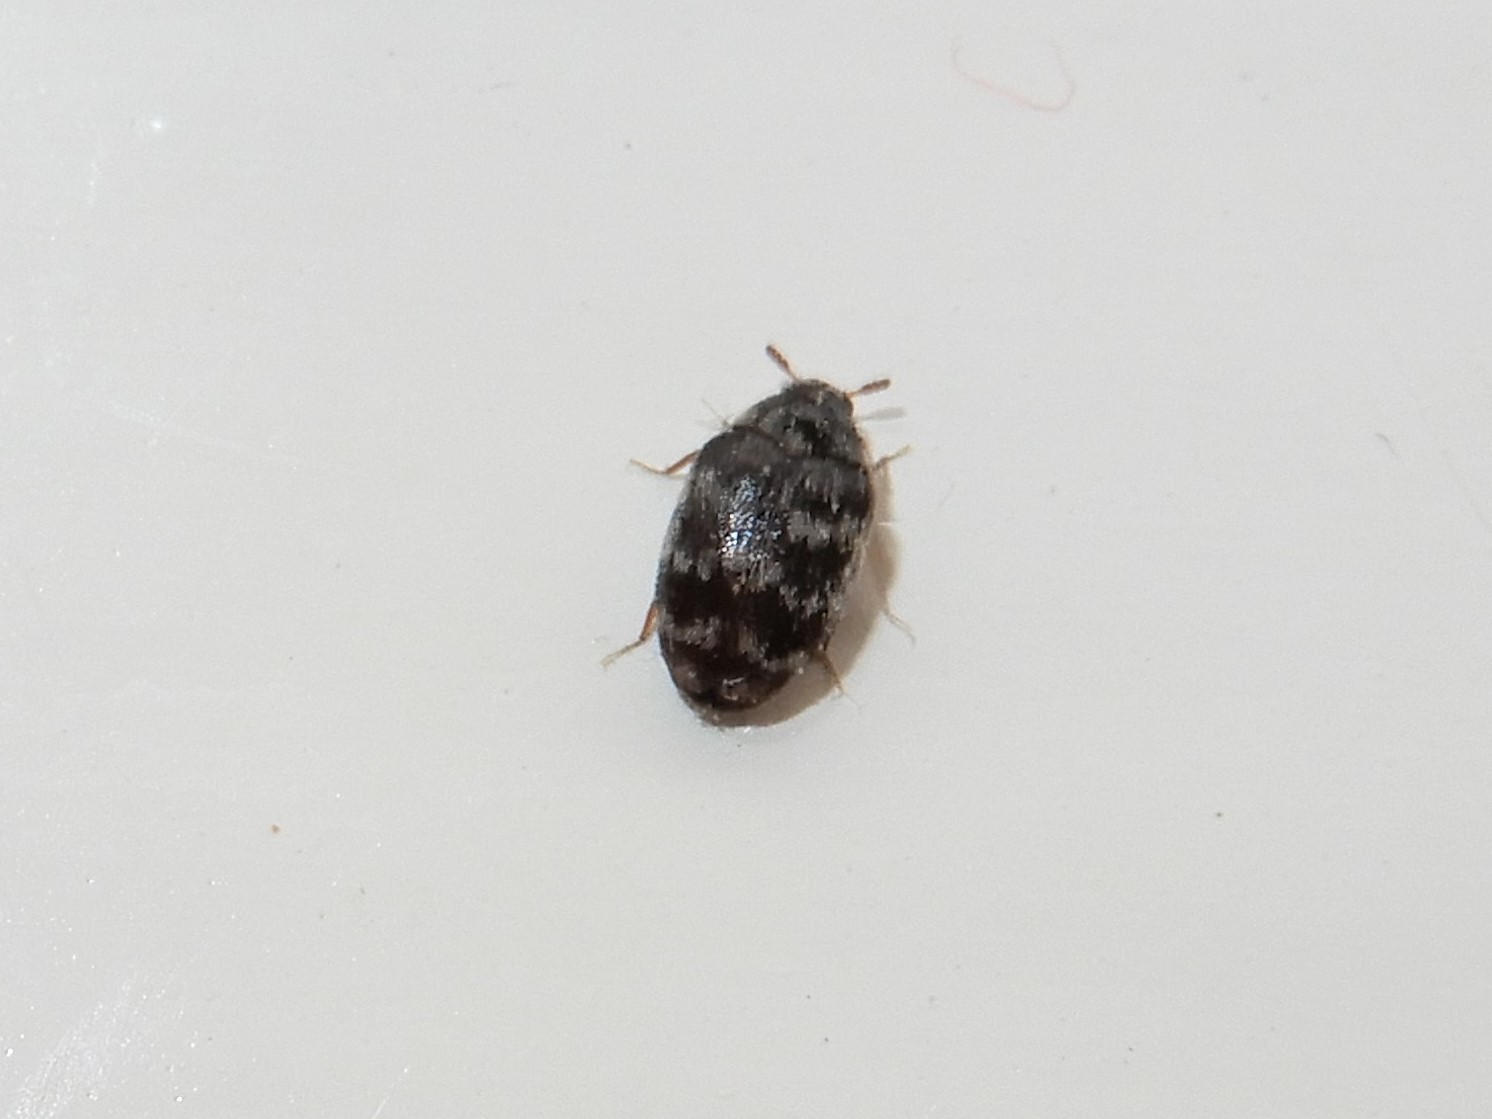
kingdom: Animalia
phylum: Arthropoda
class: Insecta
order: Coleoptera
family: Dermestidae
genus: Anthrenocerus
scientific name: Anthrenocerus australis
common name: Australian carpet beetle
